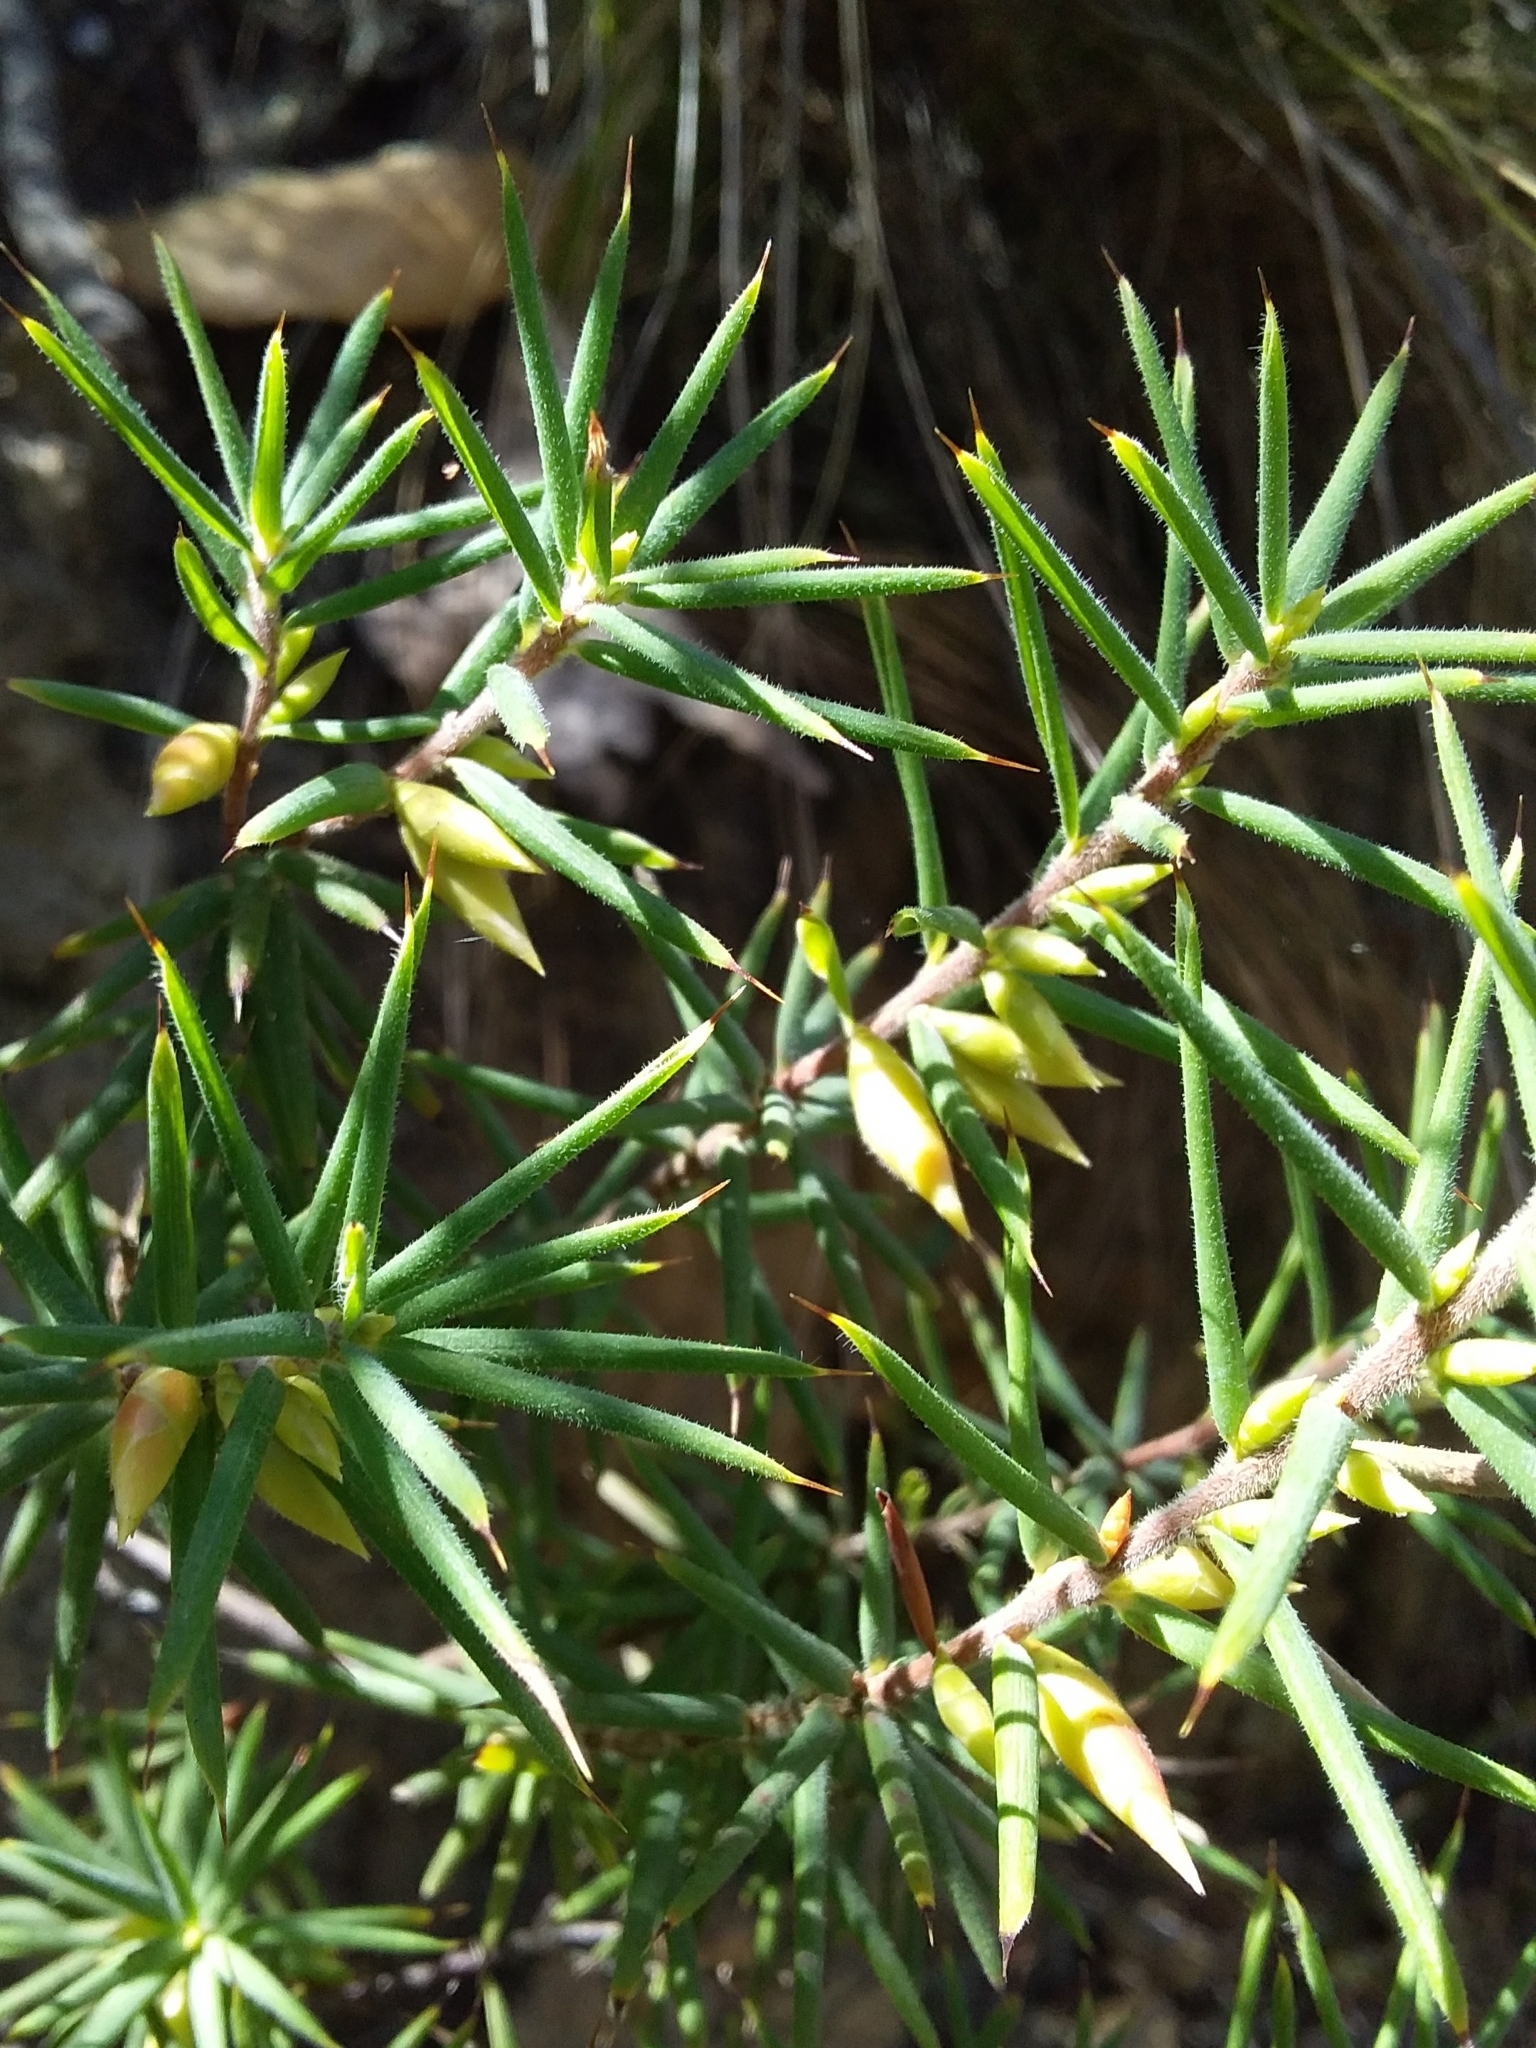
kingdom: Plantae
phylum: Tracheophyta
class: Magnoliopsida
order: Ericales
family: Ericaceae
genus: Stenanthera
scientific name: Stenanthera conostephioides
